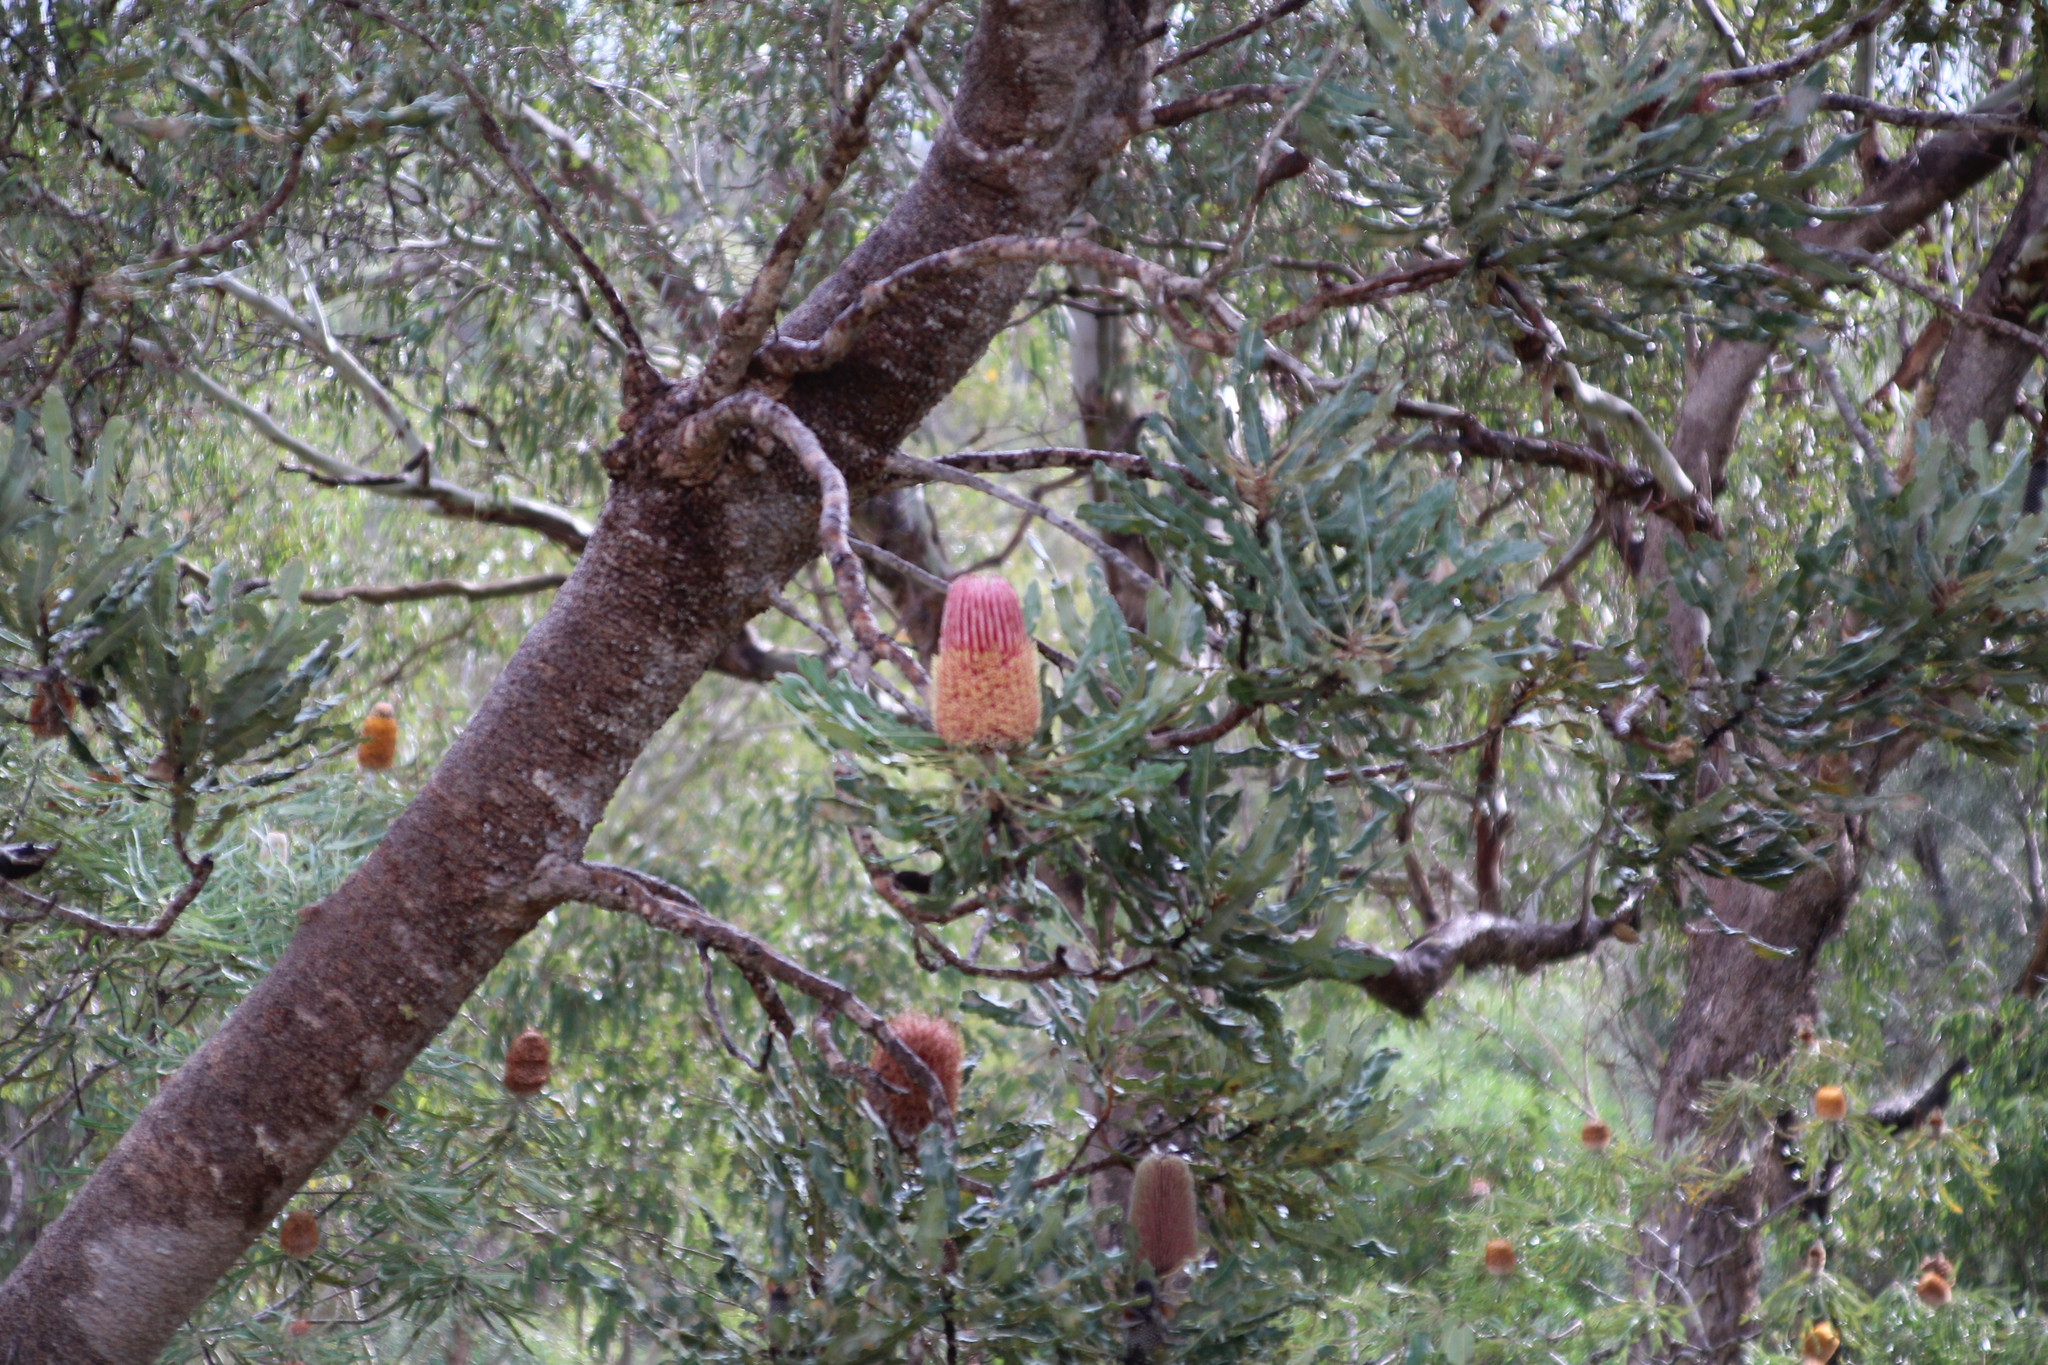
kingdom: Plantae
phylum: Tracheophyta
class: Magnoliopsida
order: Proteales
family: Proteaceae
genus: Banksia
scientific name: Banksia menziesii
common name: Menzie's banksia
